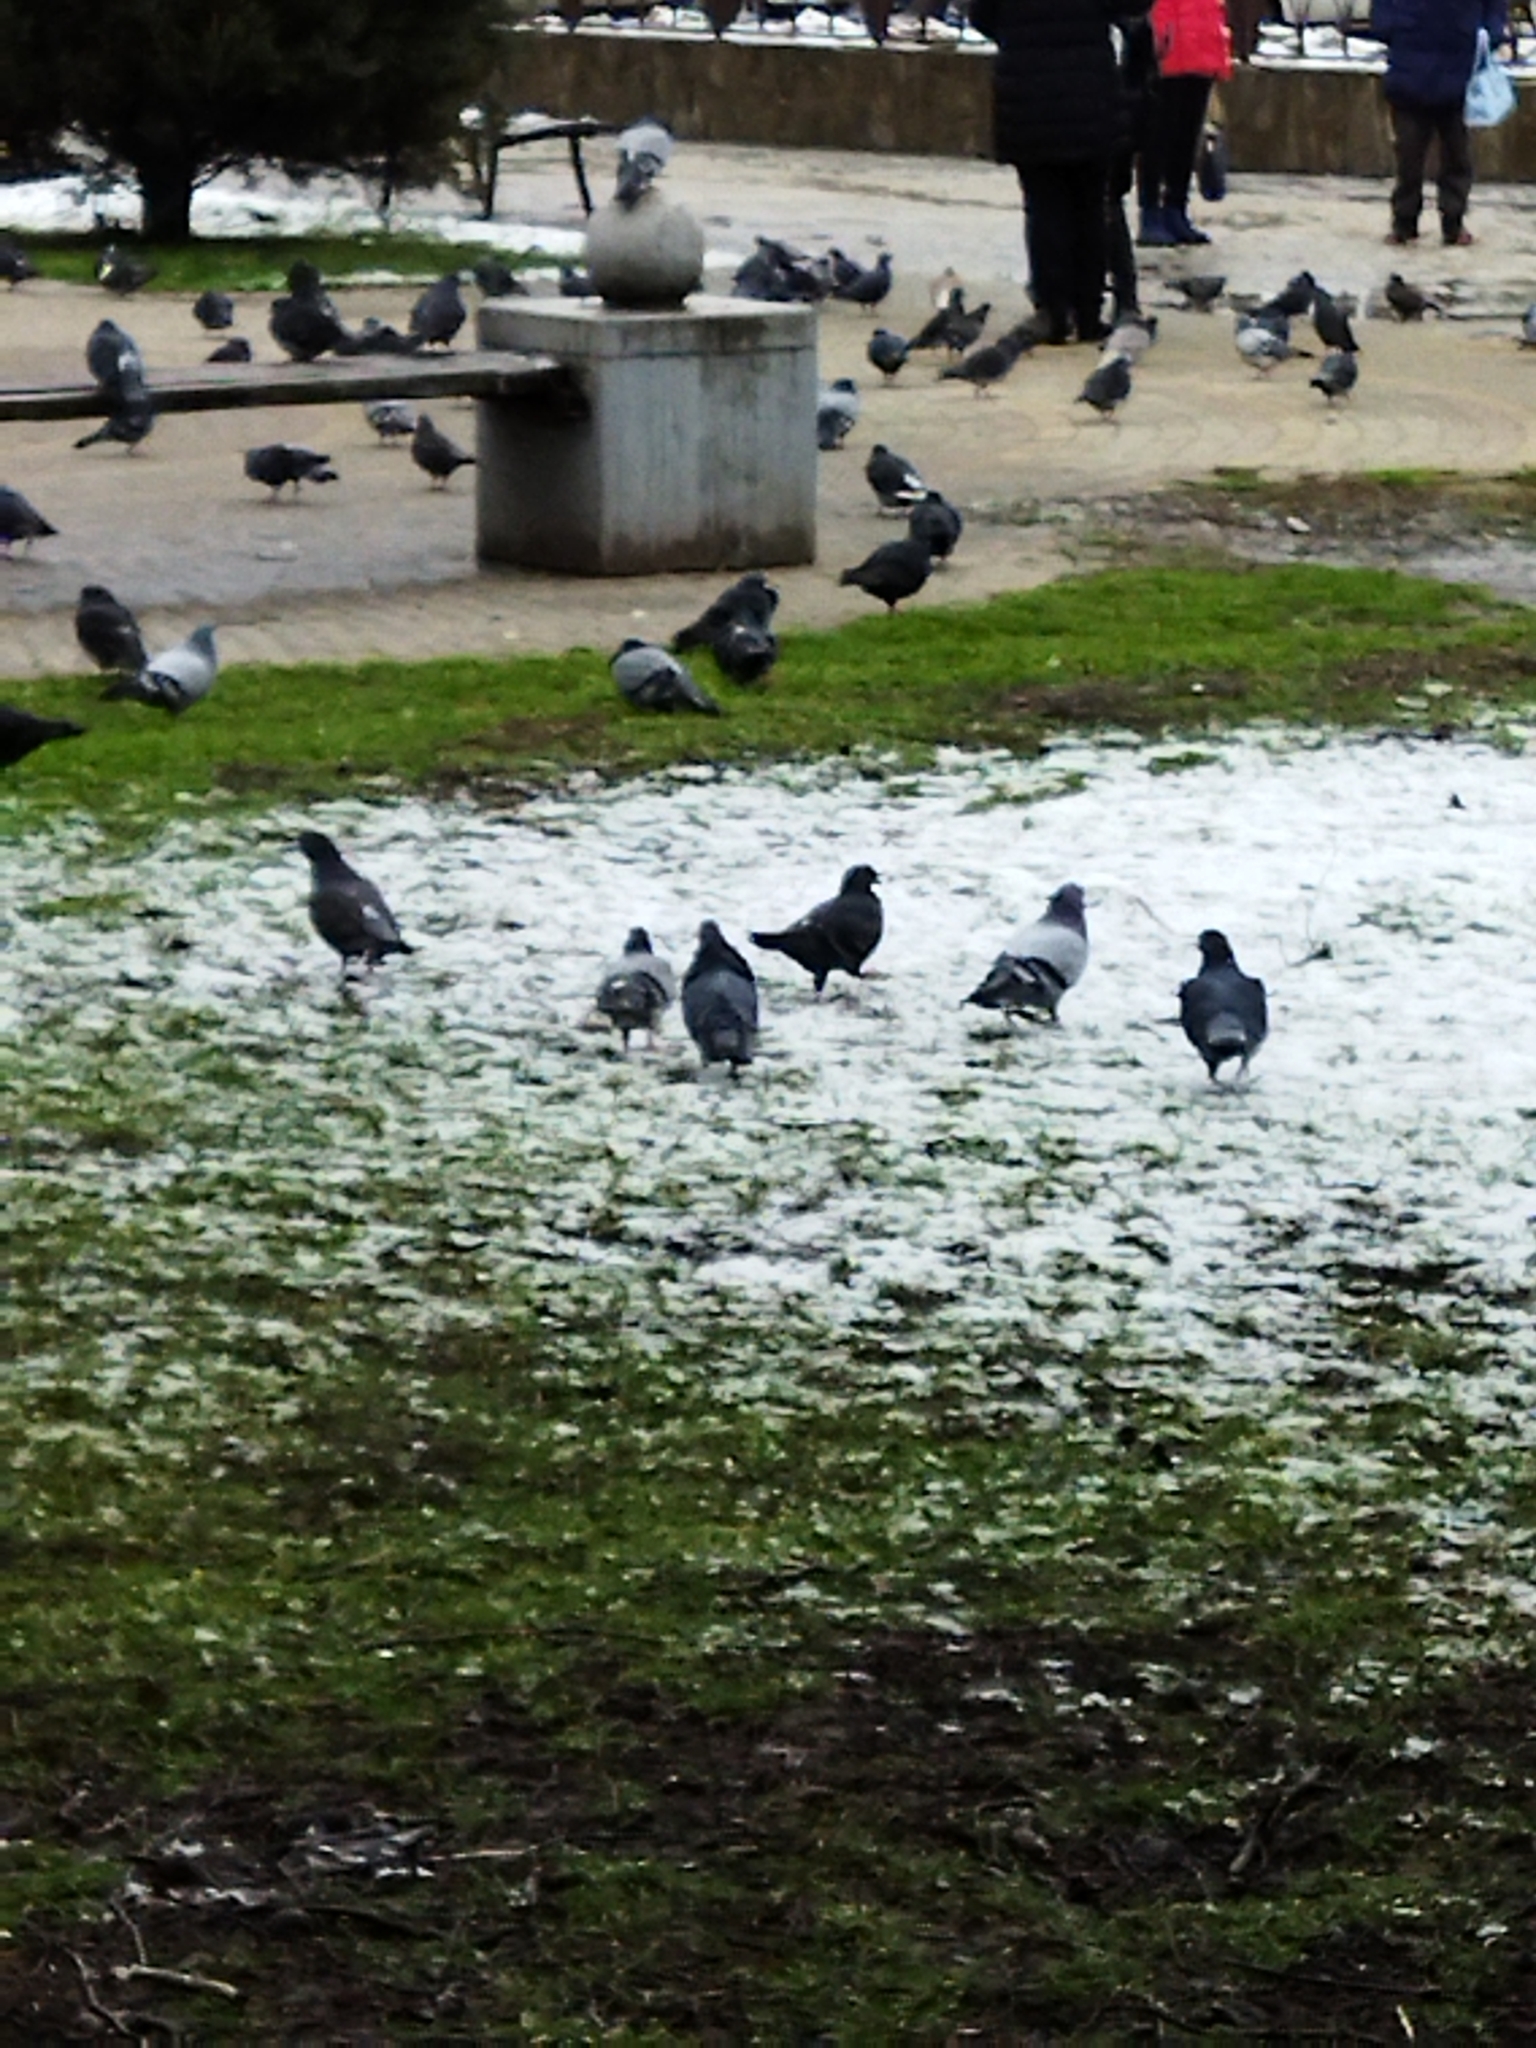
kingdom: Animalia
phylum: Chordata
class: Aves
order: Columbiformes
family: Columbidae
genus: Columba
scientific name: Columba livia
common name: Rock pigeon
